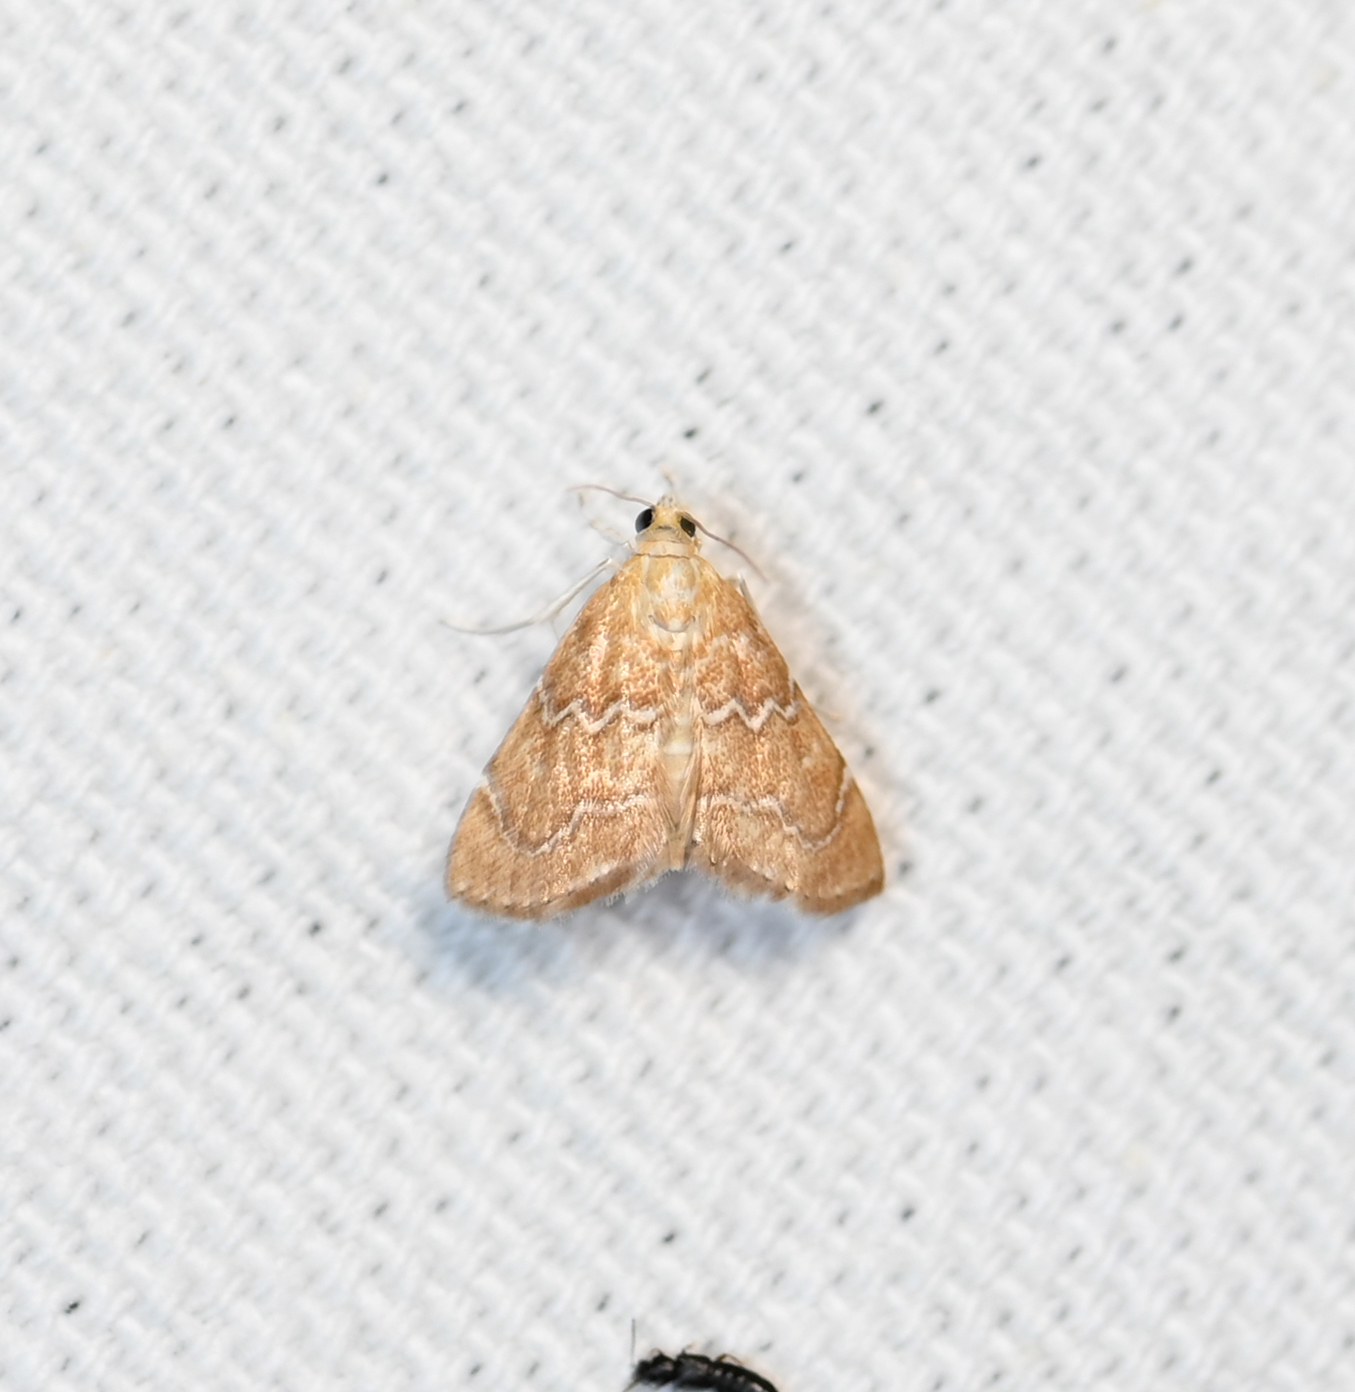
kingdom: Animalia
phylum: Arthropoda
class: Insecta
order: Lepidoptera
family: Crambidae
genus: Glaphyria
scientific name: Glaphyria sesquistrialis
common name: White-roped glaphyria
